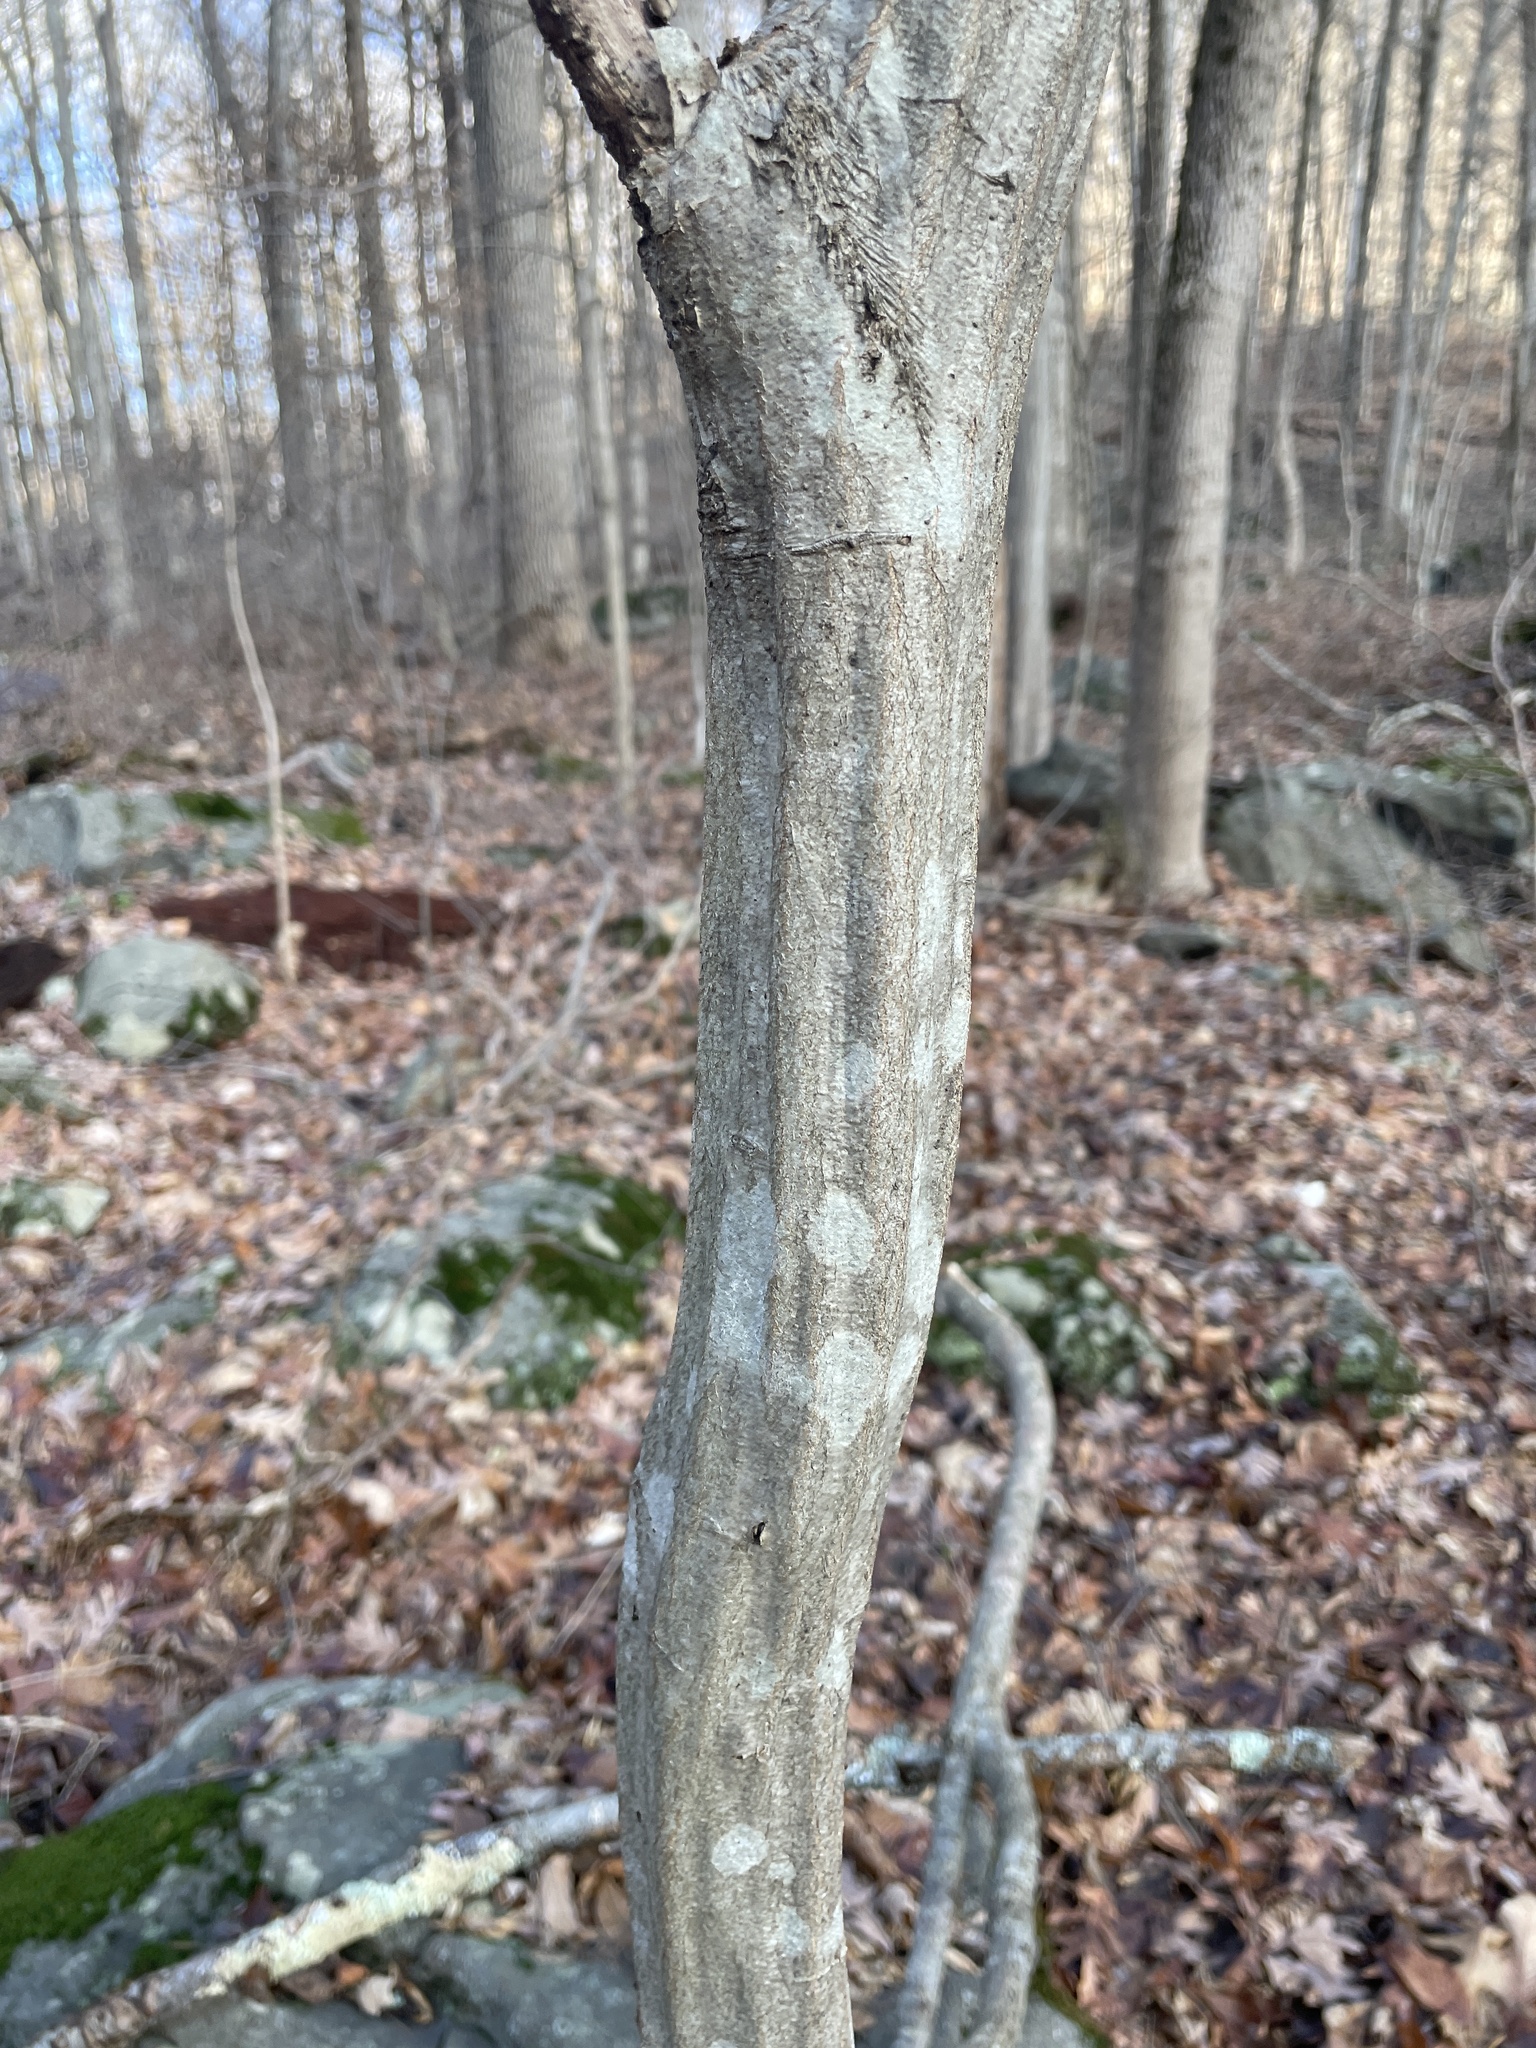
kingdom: Plantae
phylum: Tracheophyta
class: Magnoliopsida
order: Fagales
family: Betulaceae
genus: Carpinus
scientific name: Carpinus caroliniana
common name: American hornbeam
